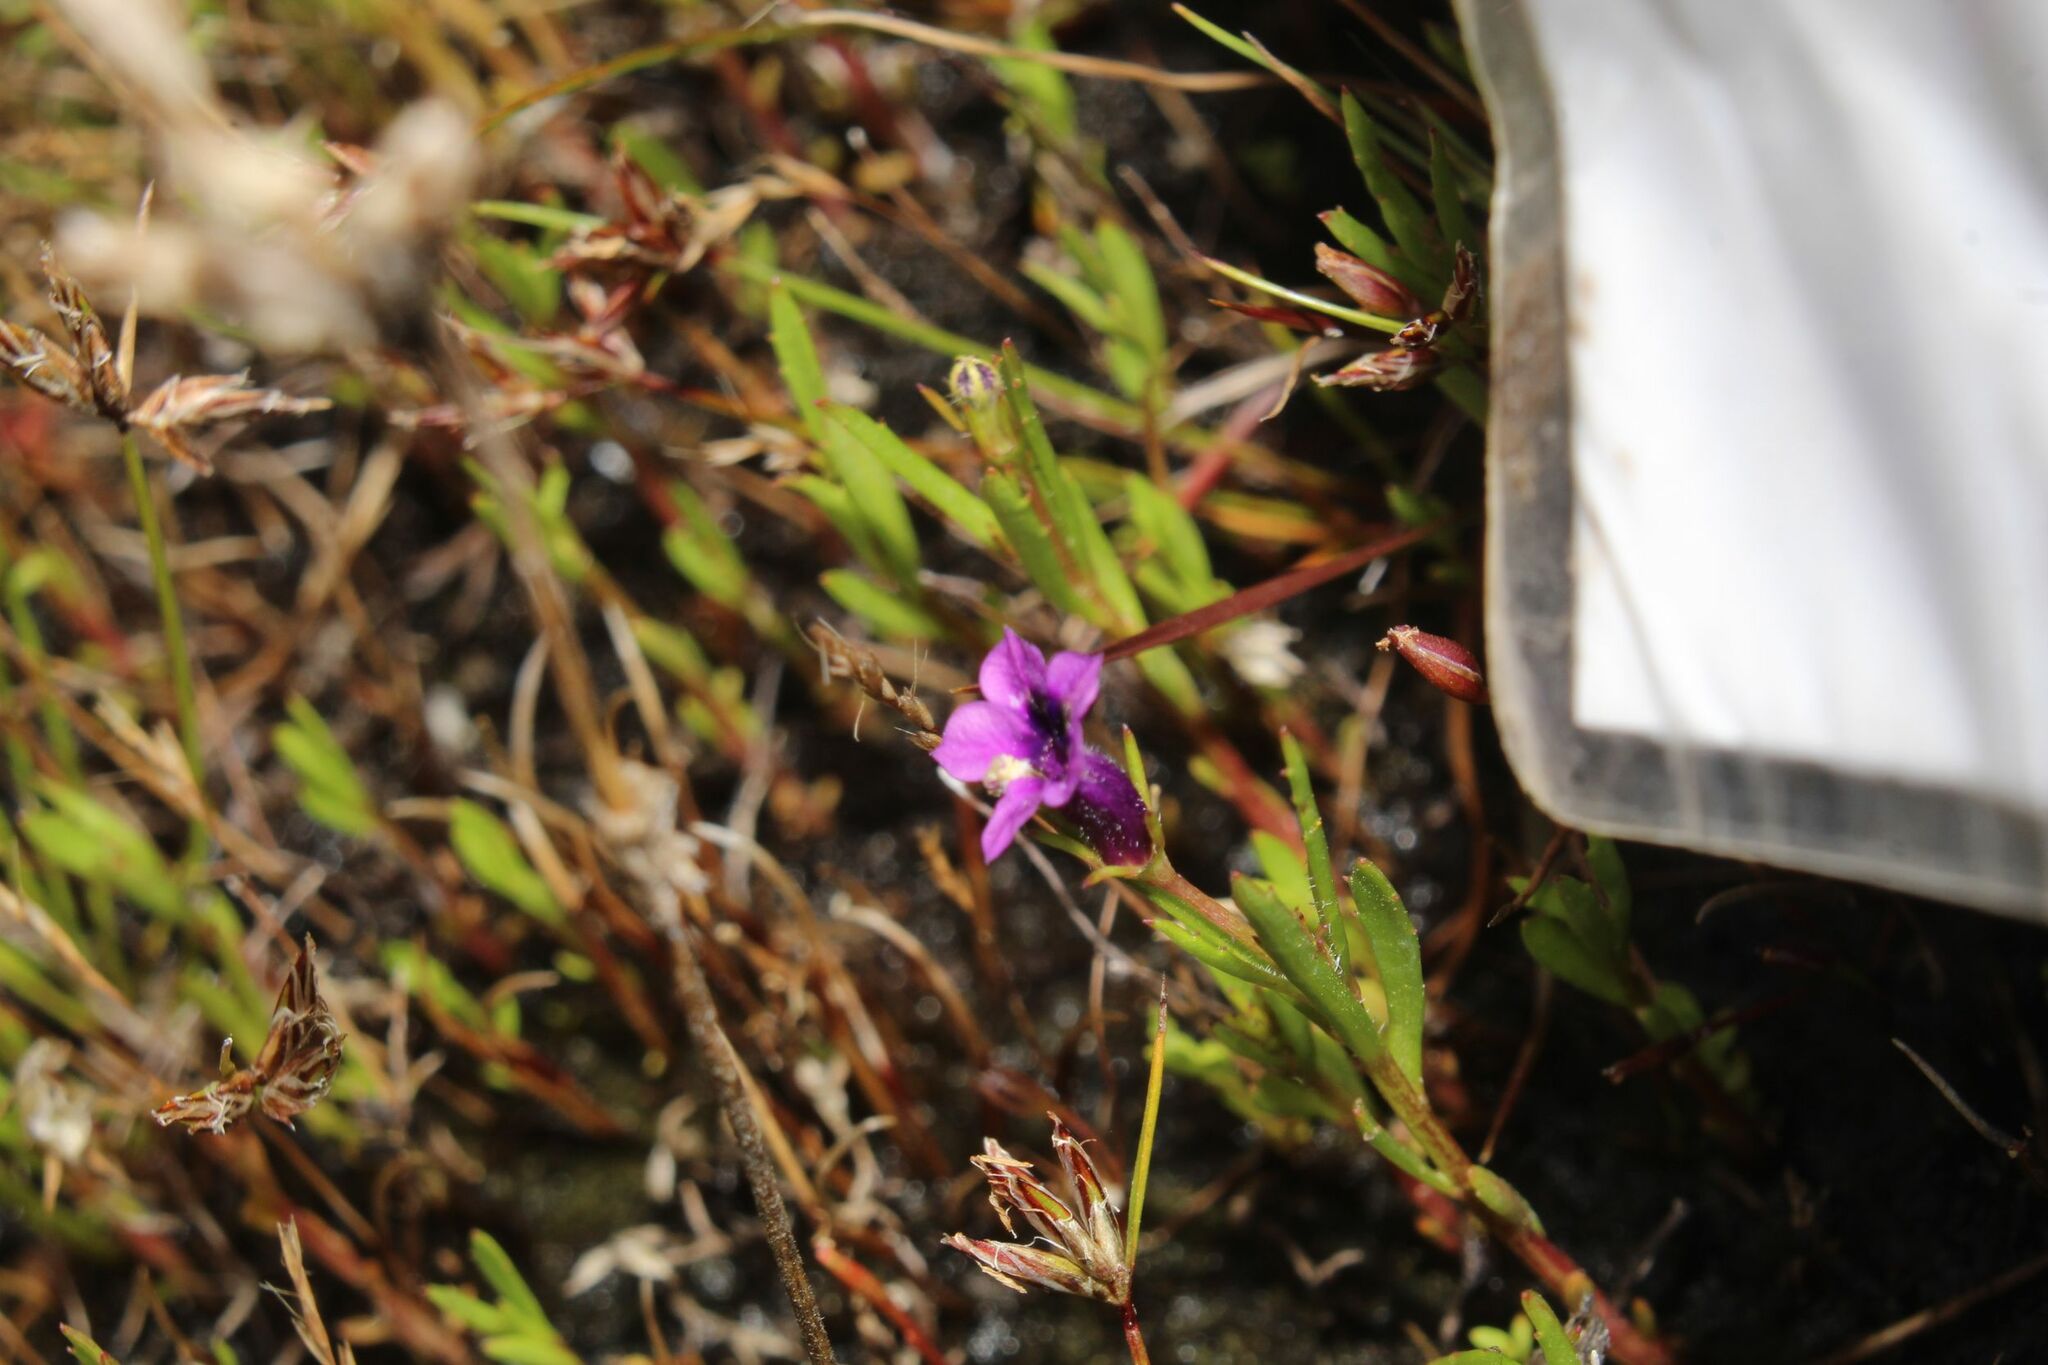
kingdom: Plantae
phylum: Tracheophyta
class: Magnoliopsida
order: Asterales
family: Campanulaceae
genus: Monopsis
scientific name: Monopsis debilis
